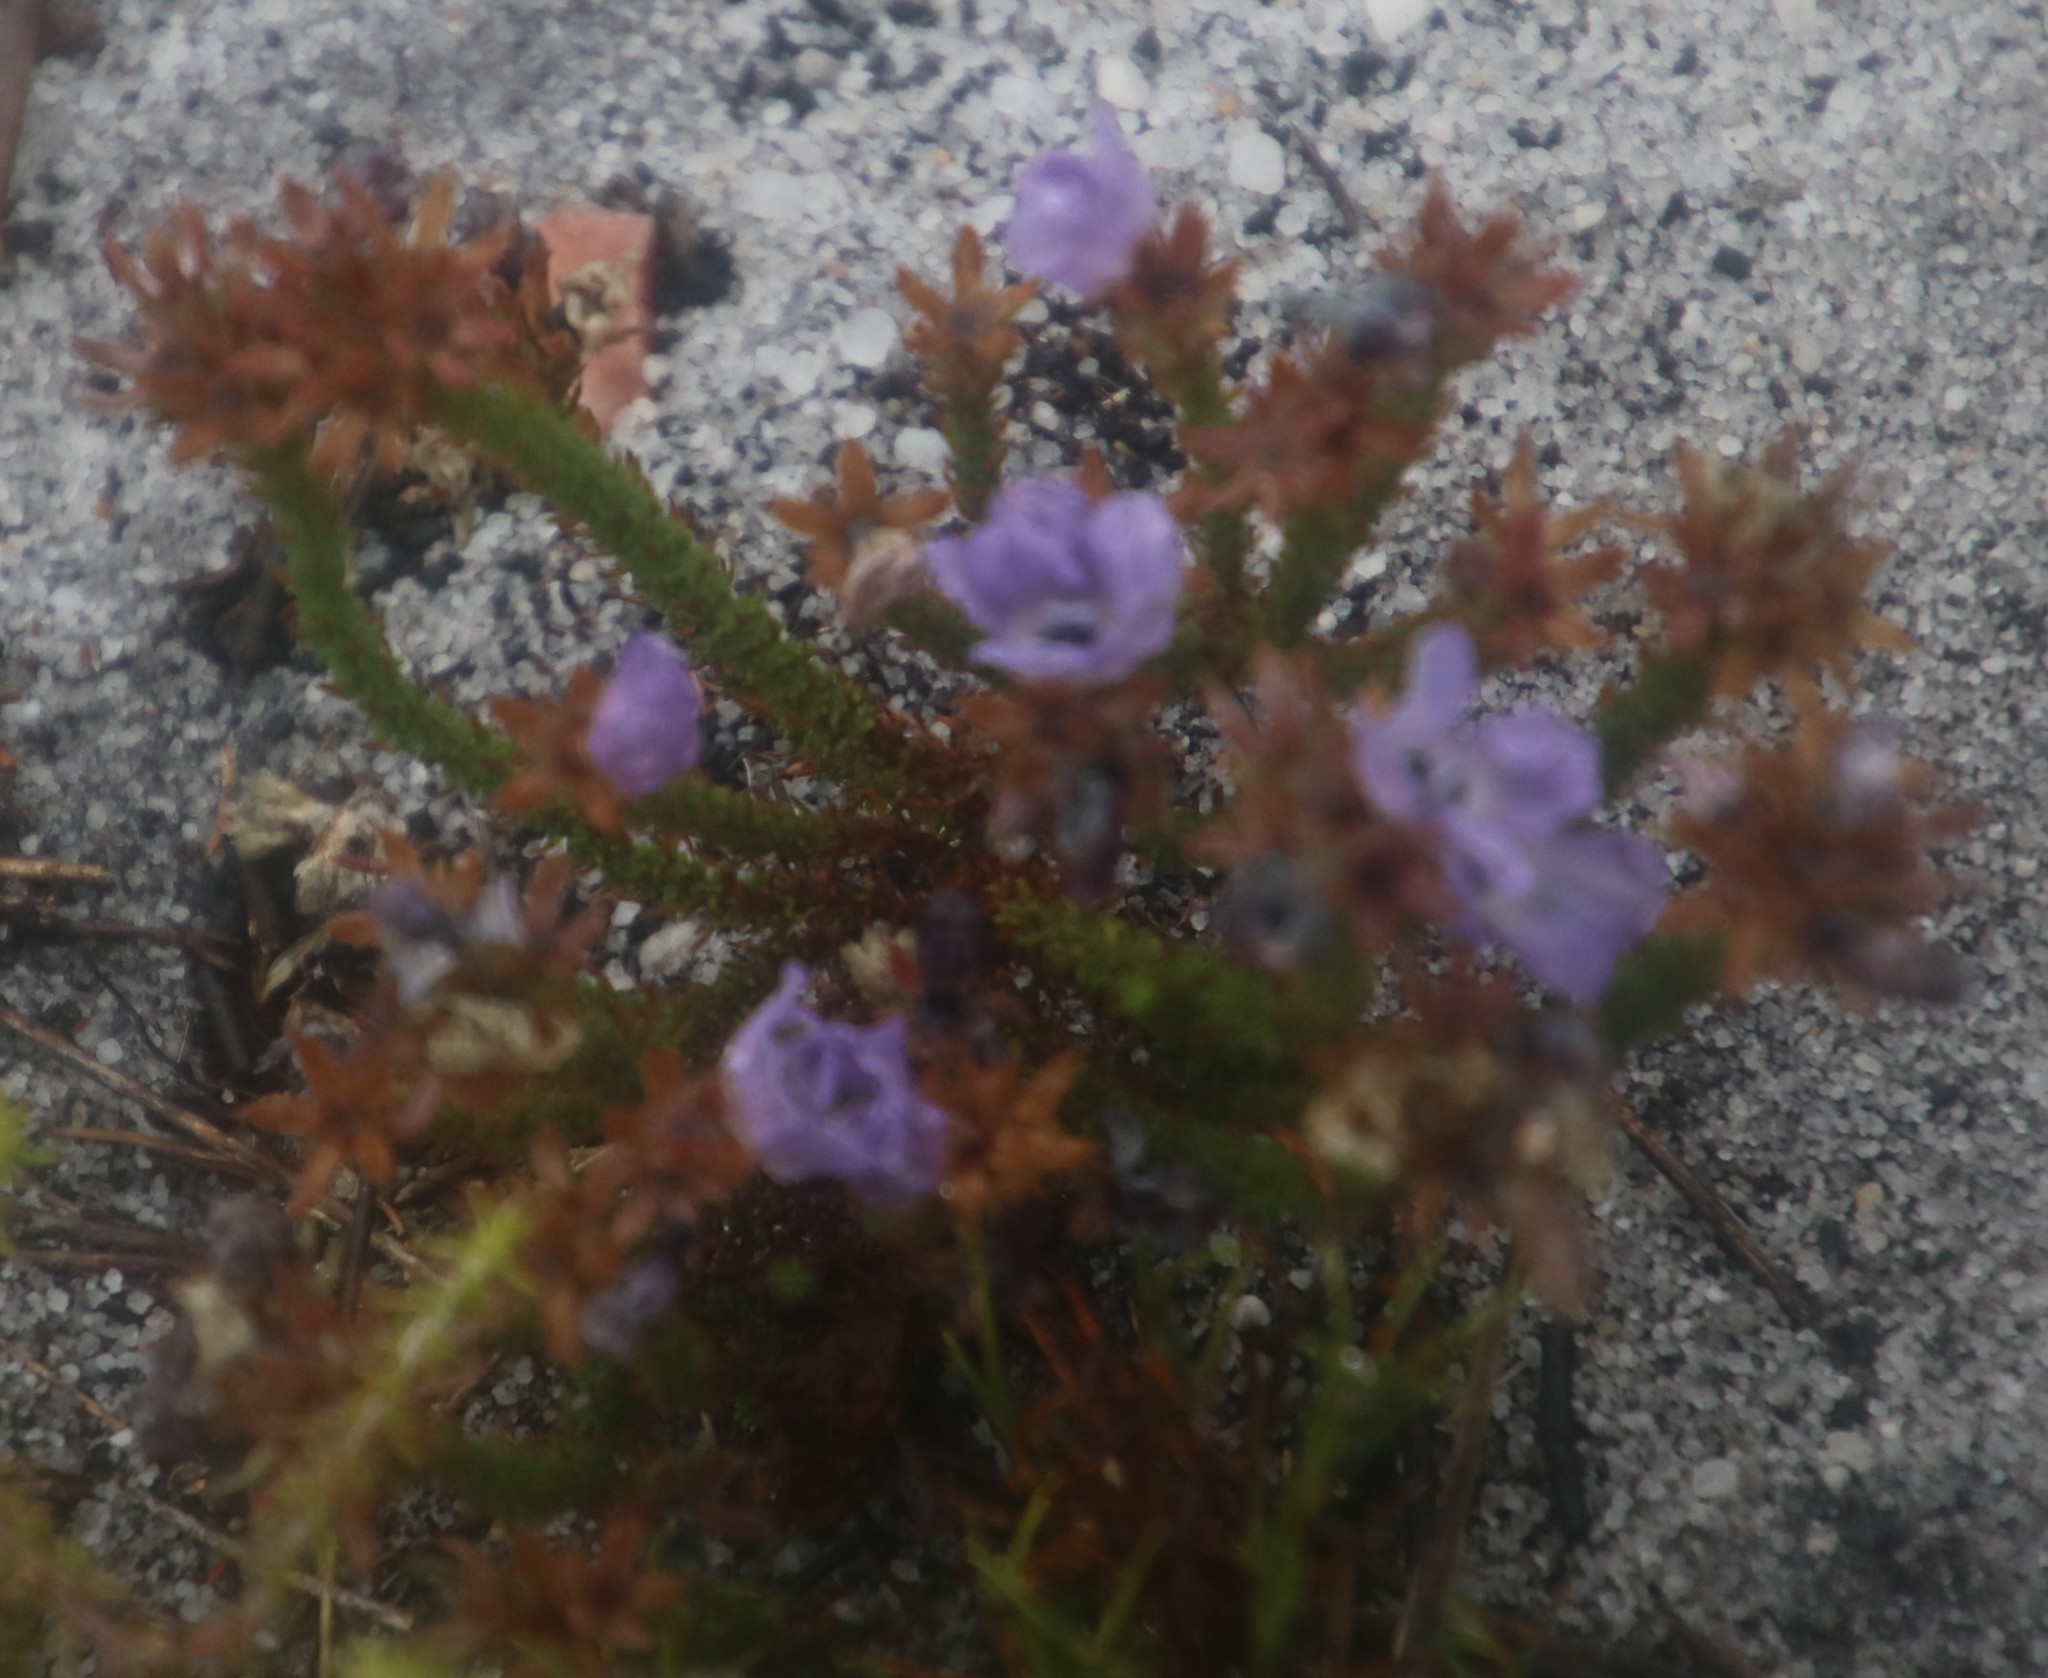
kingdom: Plantae
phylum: Tracheophyta
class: Magnoliopsida
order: Asterales
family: Campanulaceae
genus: Roella
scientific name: Roella triflora
